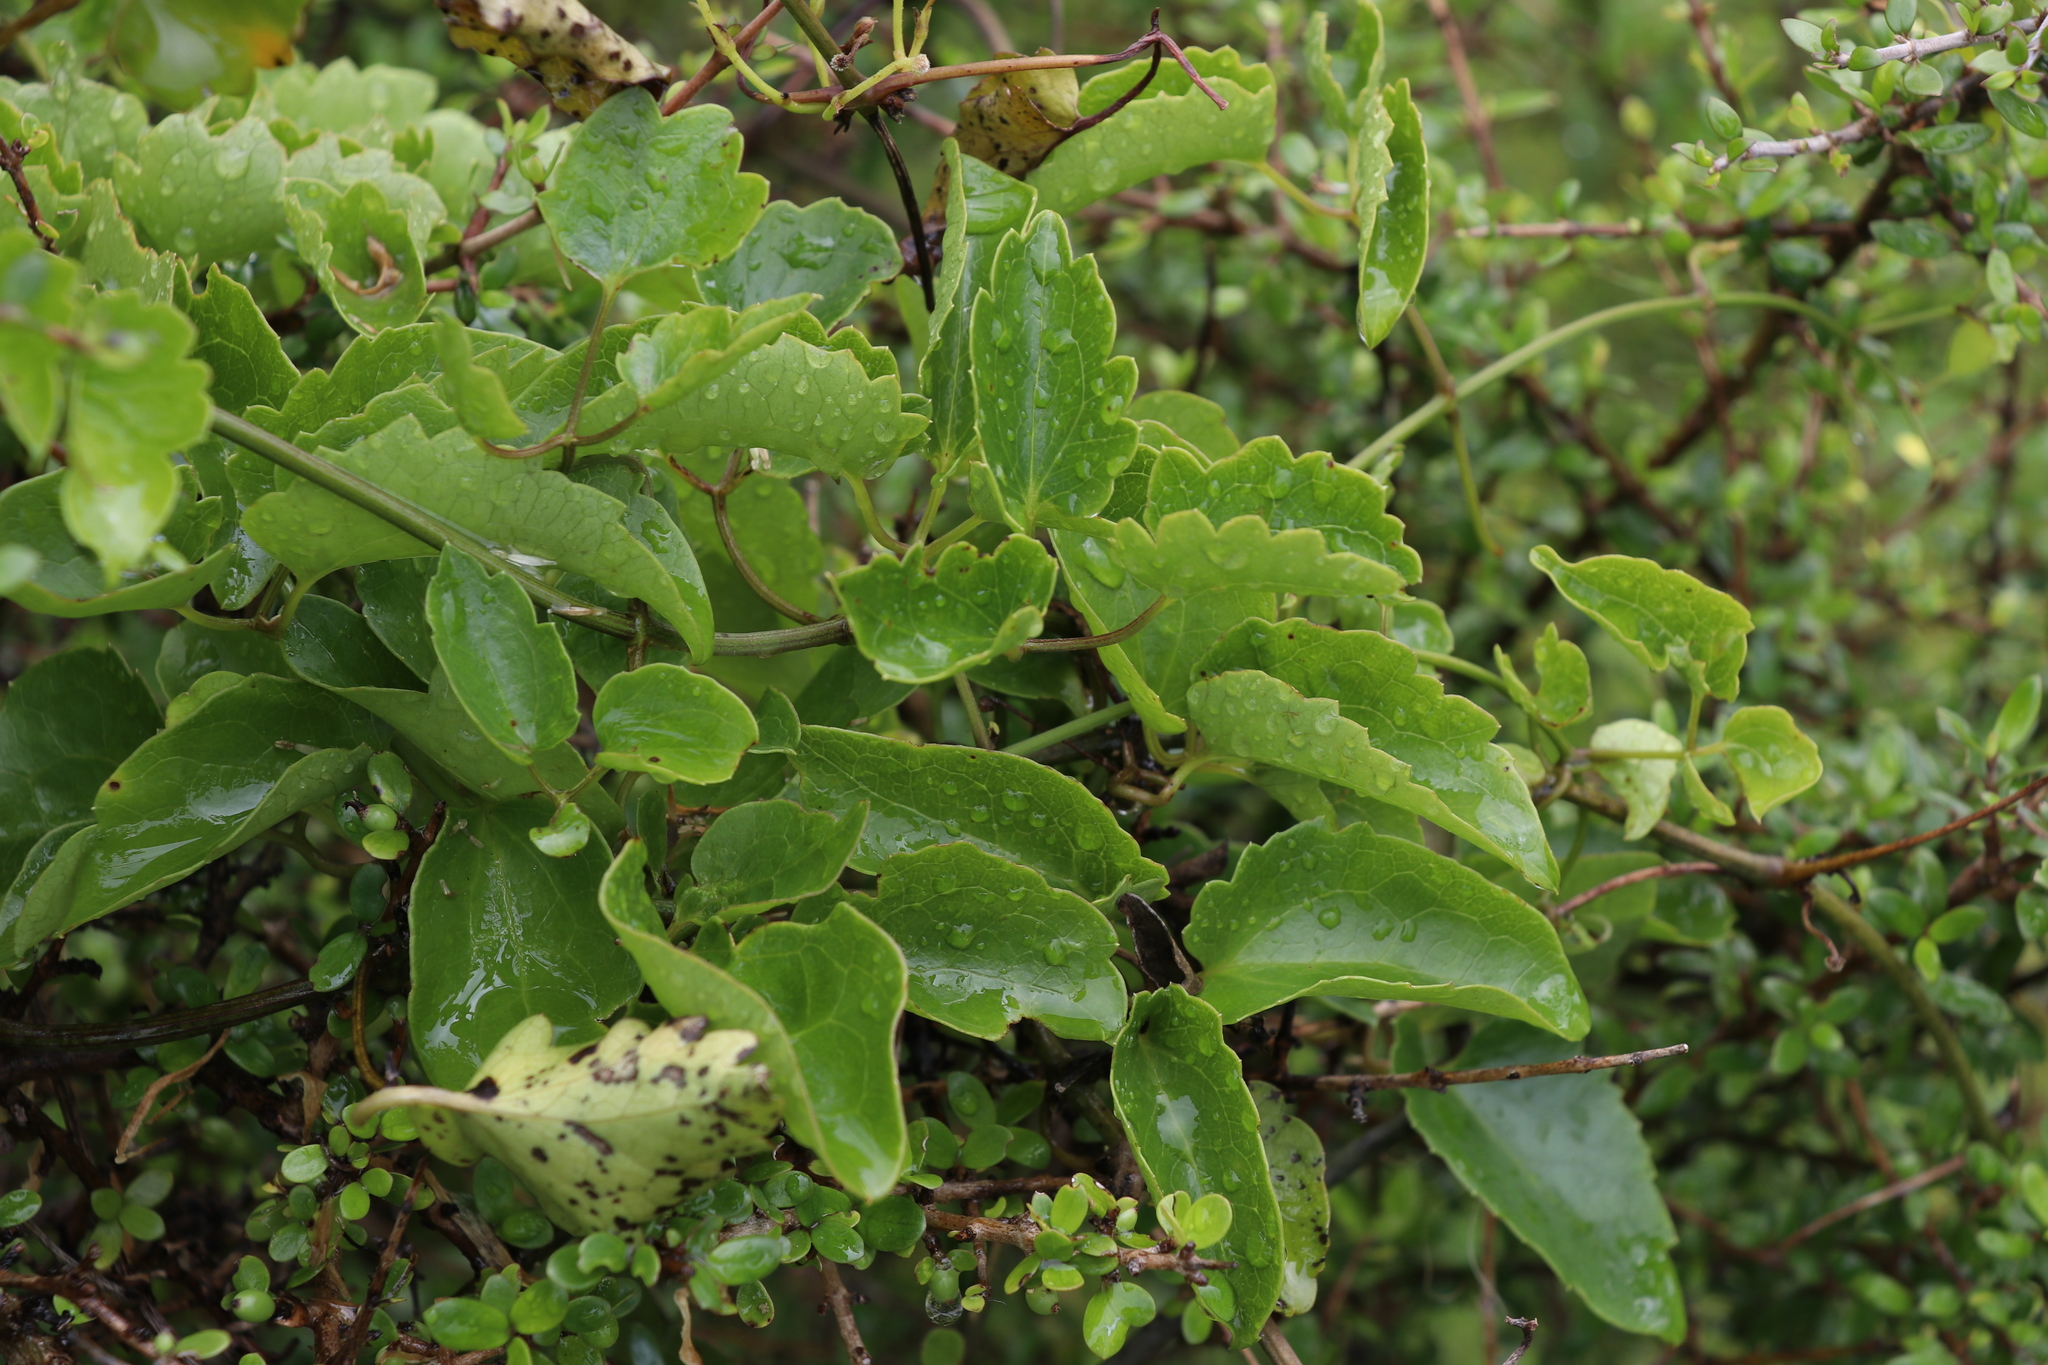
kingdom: Plantae
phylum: Tracheophyta
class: Magnoliopsida
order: Ranunculales
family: Ranunculaceae
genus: Clematis
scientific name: Clematis forsteri
